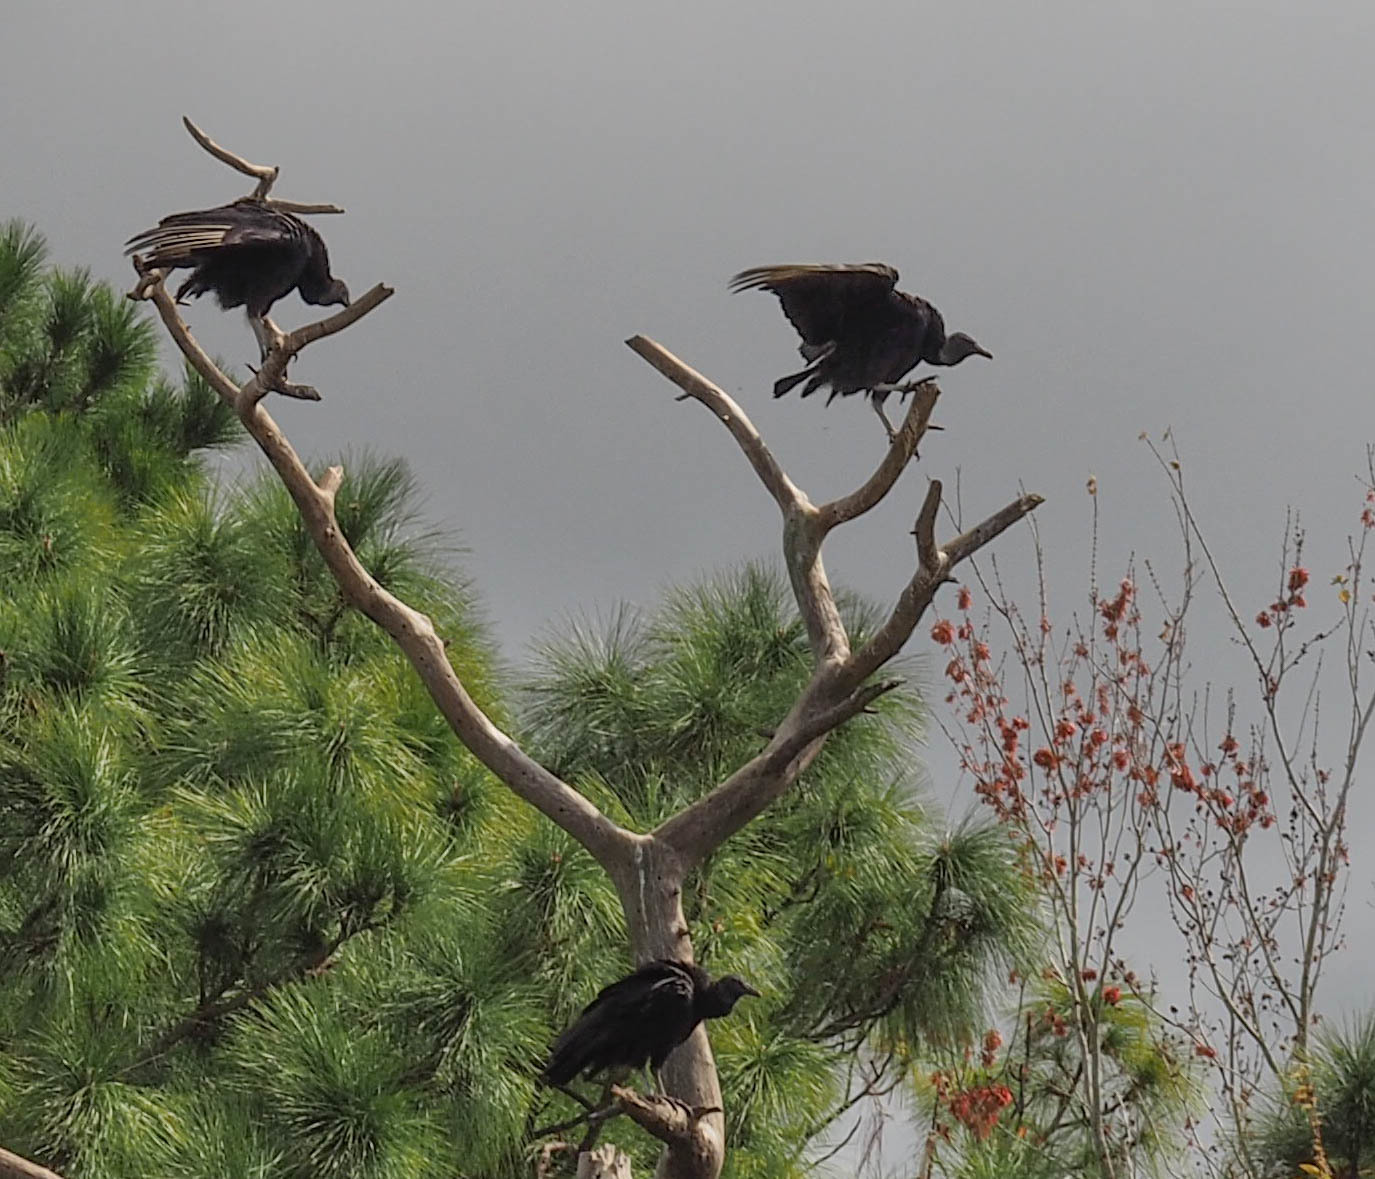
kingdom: Animalia
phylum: Chordata
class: Aves
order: Accipitriformes
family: Cathartidae
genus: Coragyps
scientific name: Coragyps atratus
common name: Black vulture
